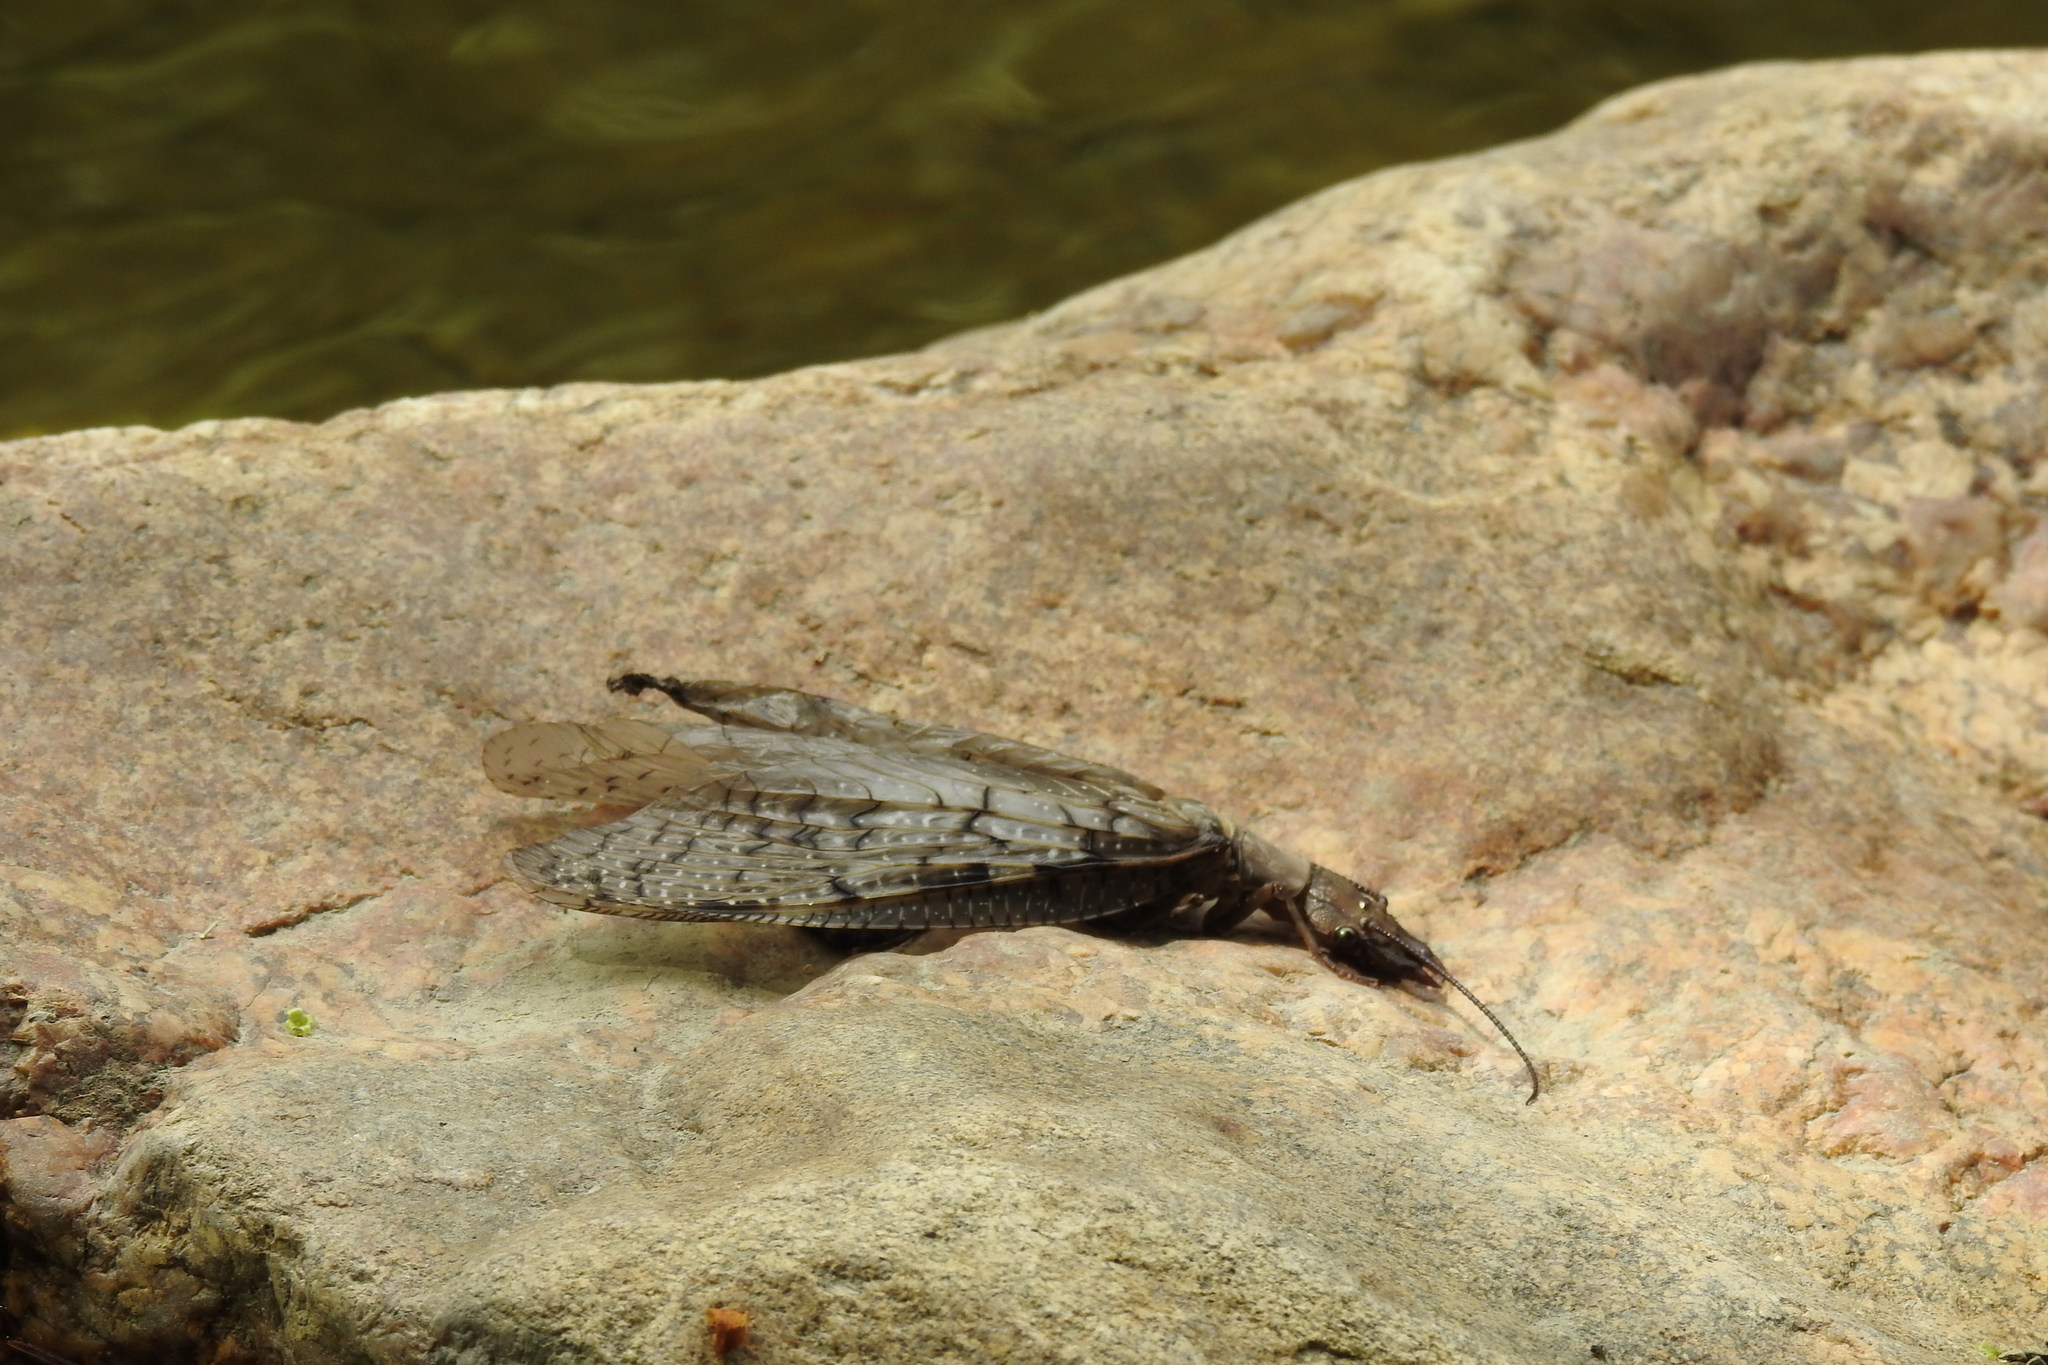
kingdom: Animalia
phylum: Arthropoda
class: Insecta
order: Megaloptera
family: Corydalidae
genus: Corydalus
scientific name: Corydalus cornutus
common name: Dobsonfly
